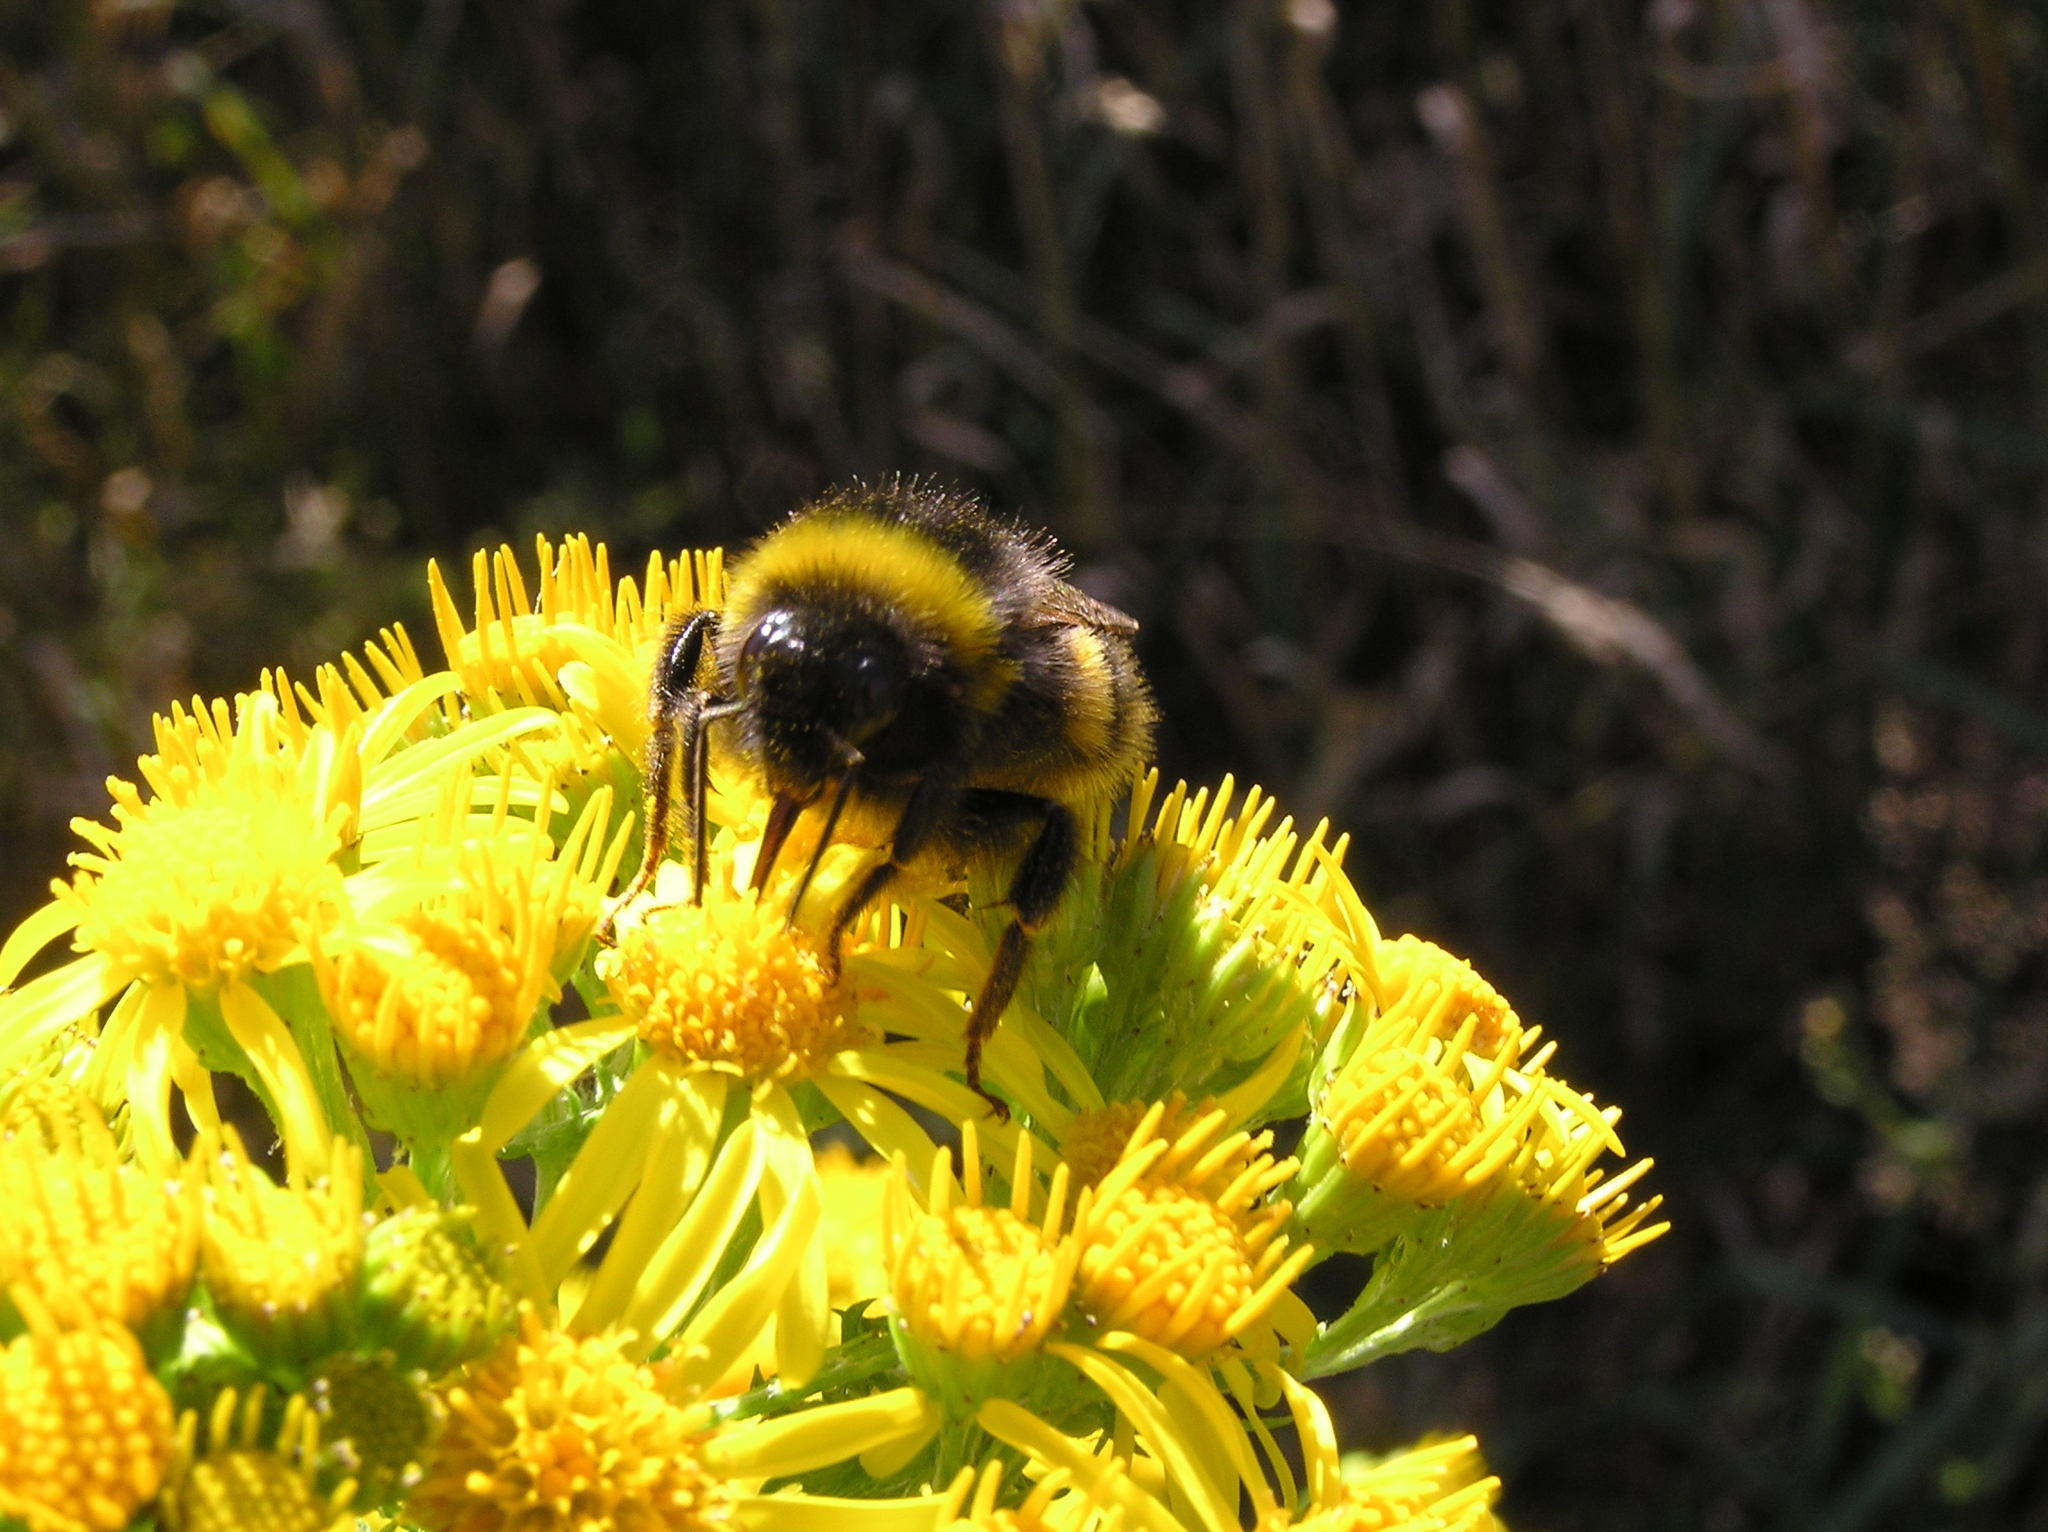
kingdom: Animalia
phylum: Arthropoda
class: Insecta
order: Hymenoptera
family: Apidae
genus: Bombus
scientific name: Bombus terrestris
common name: Buff-tailed bumblebee
